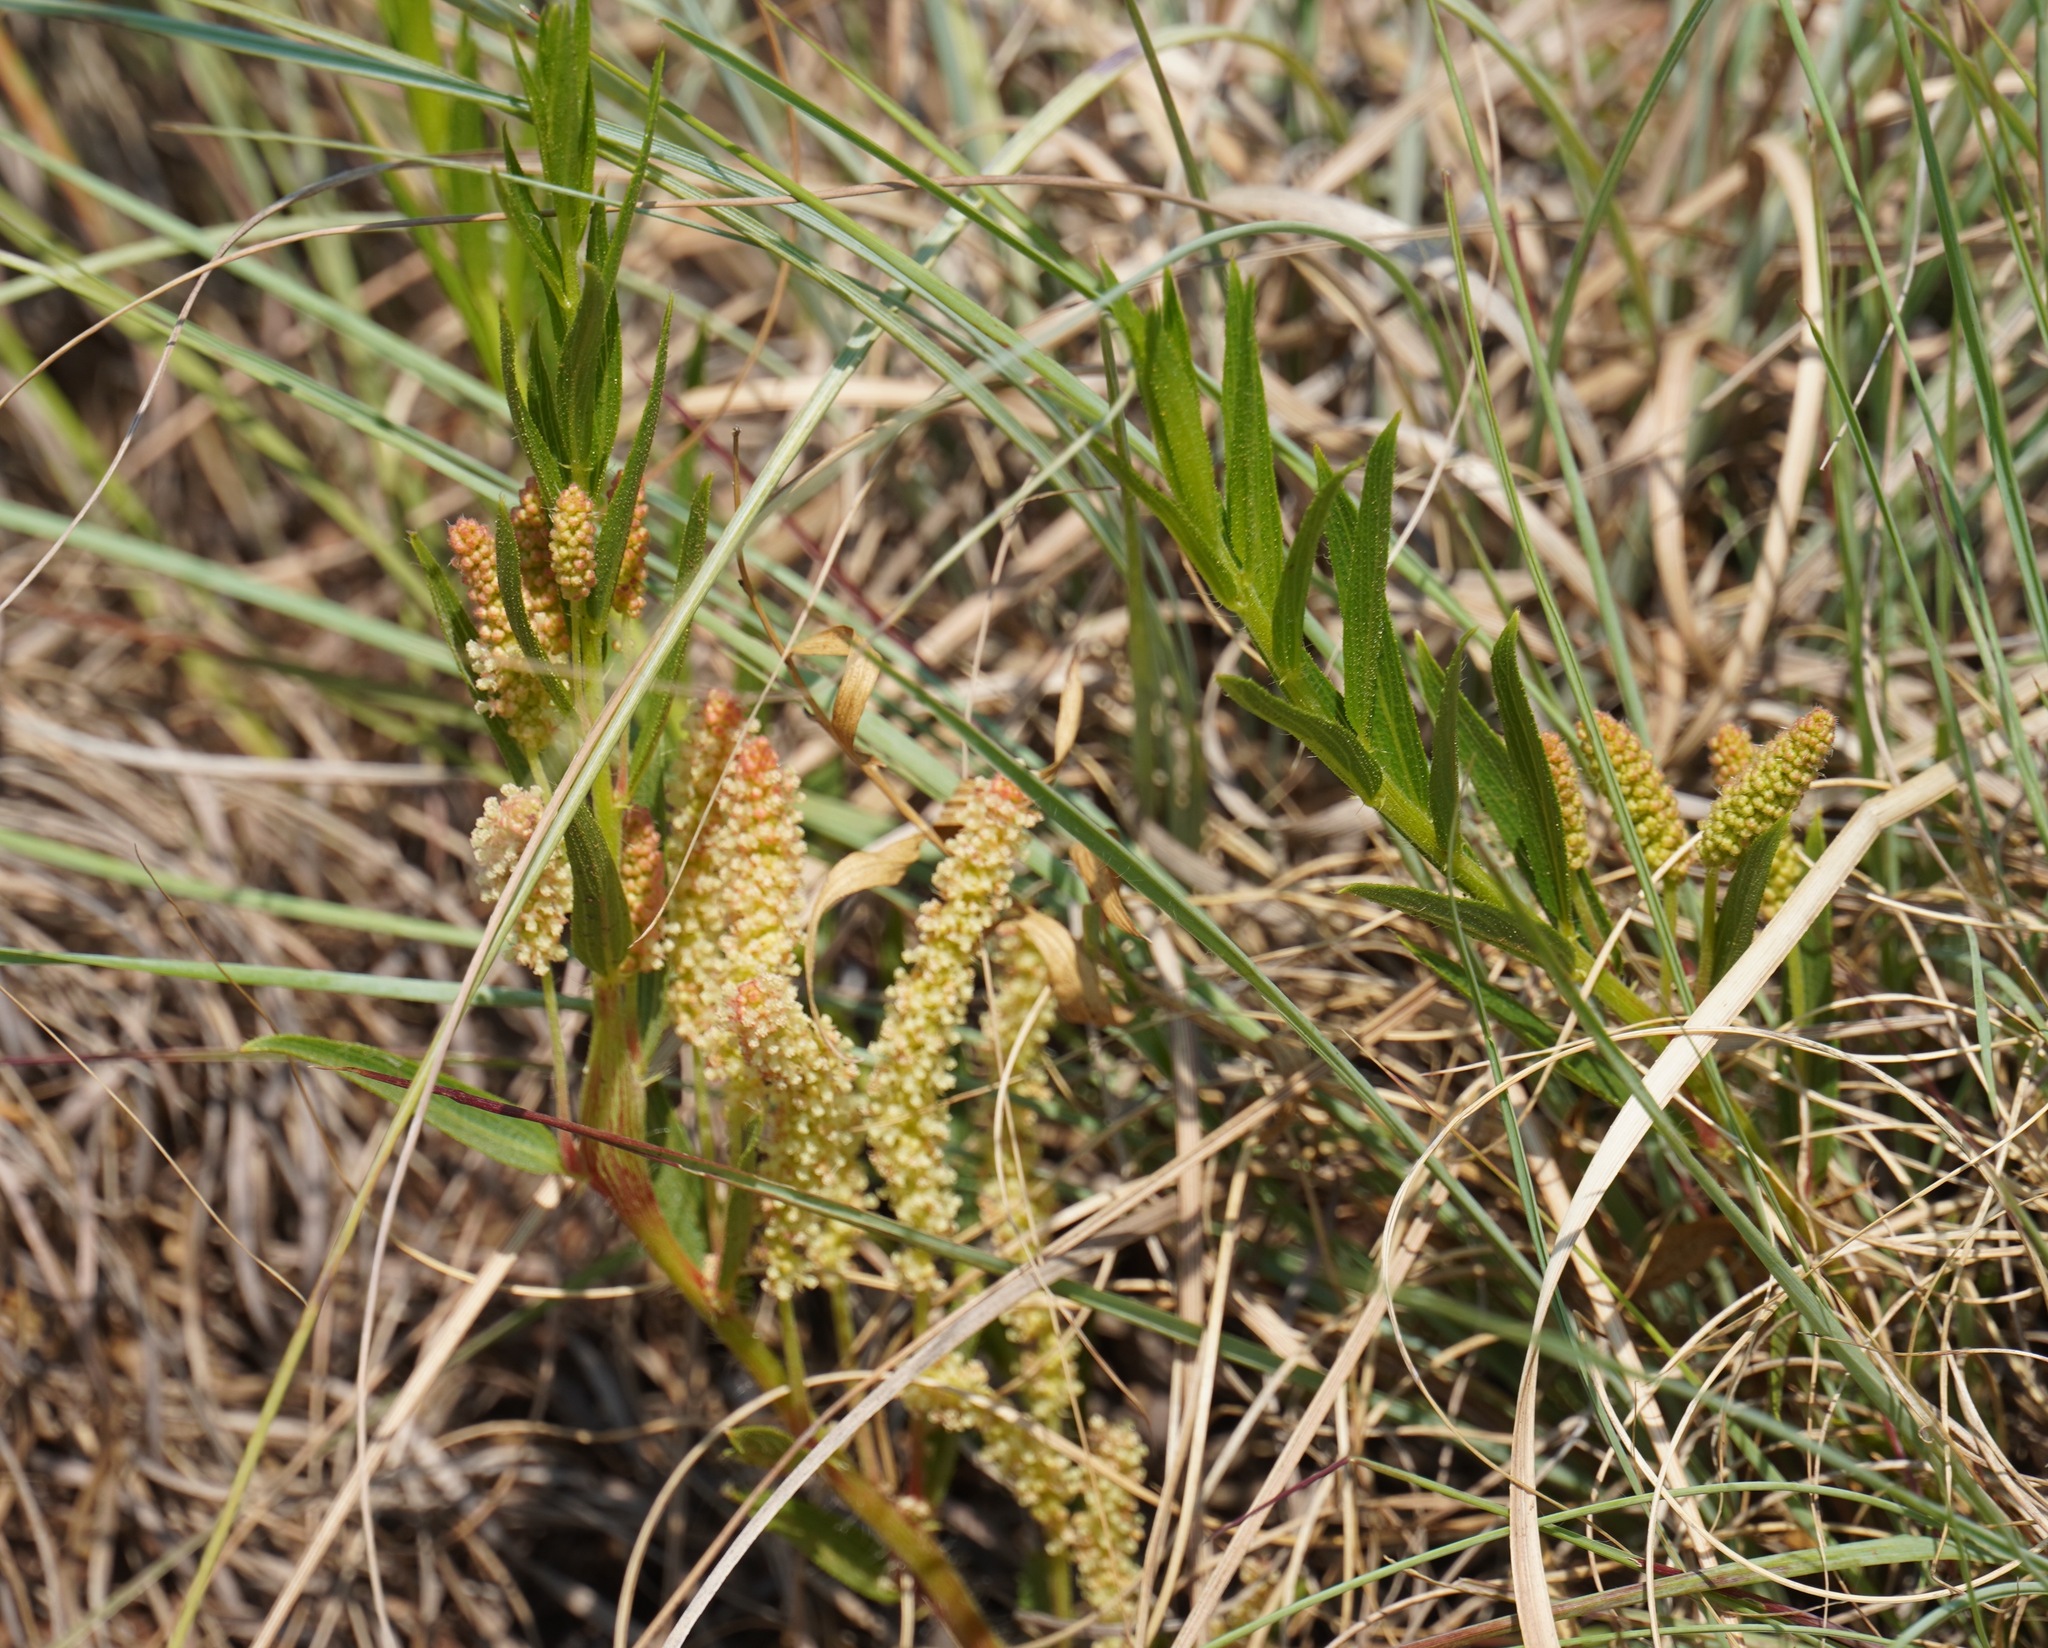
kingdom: Plantae
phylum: Tracheophyta
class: Magnoliopsida
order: Malpighiales
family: Euphorbiaceae
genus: Acalypha
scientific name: Acalypha angustata
